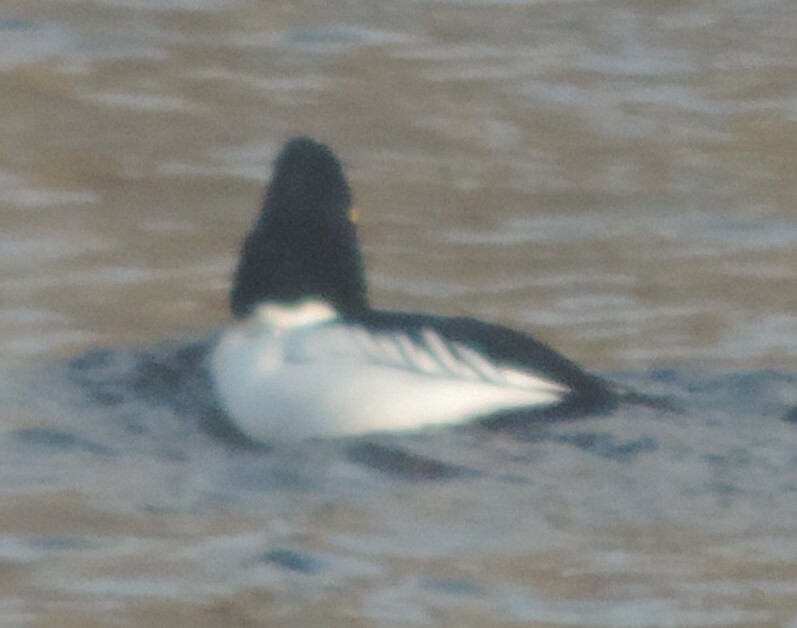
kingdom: Animalia
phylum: Chordata
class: Aves
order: Anseriformes
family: Anatidae
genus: Bucephala
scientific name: Bucephala clangula
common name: Common goldeneye
